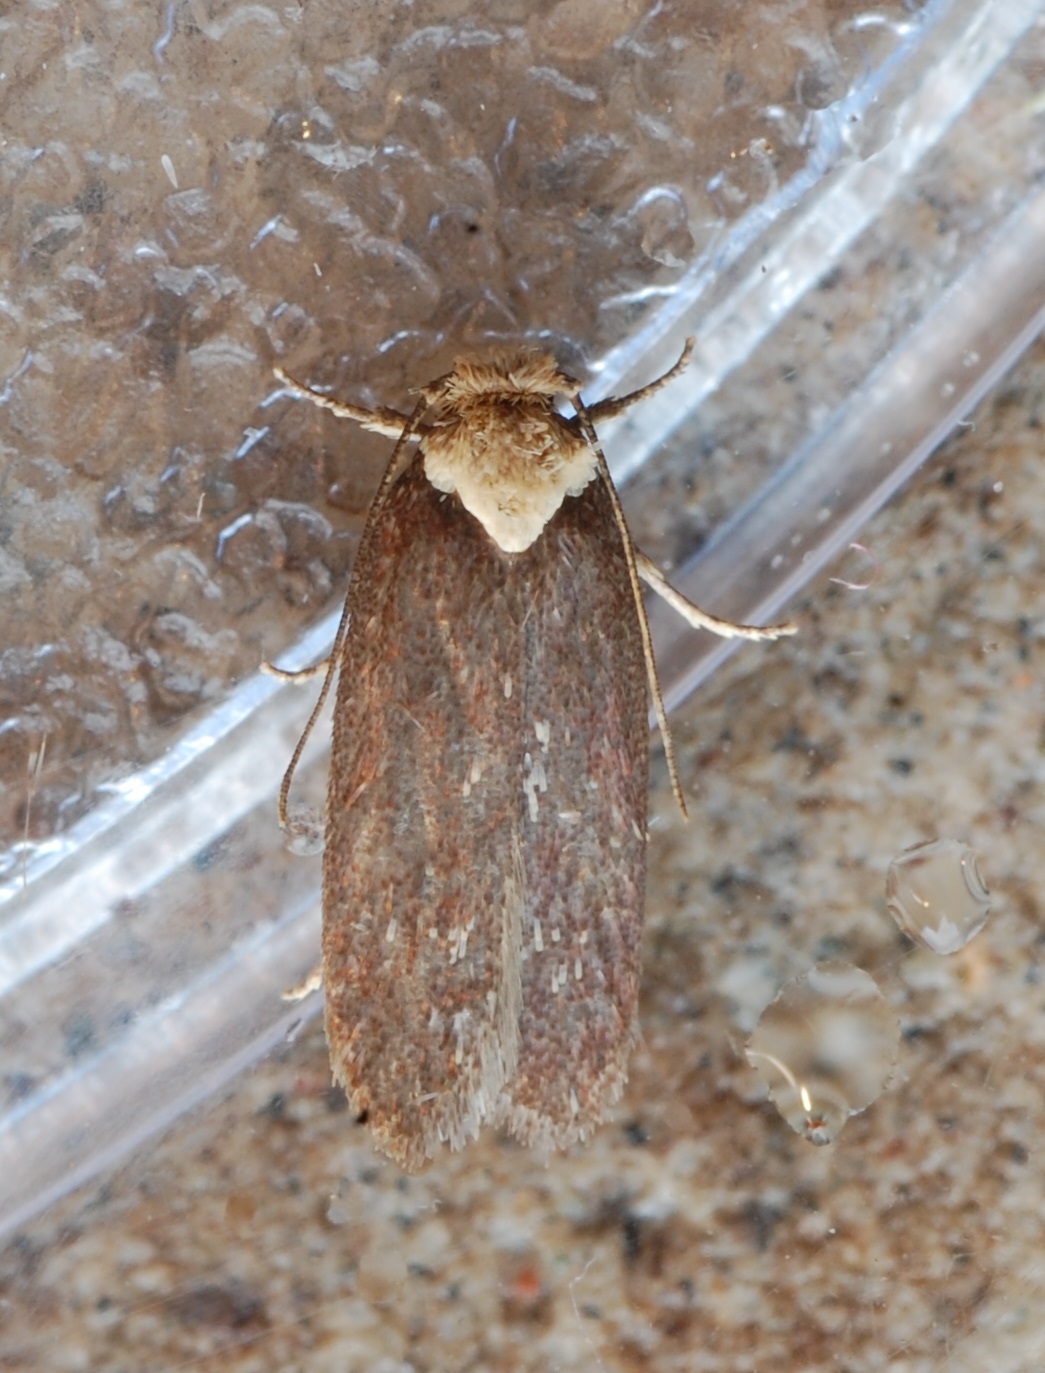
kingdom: Animalia
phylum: Arthropoda
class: Insecta
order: Lepidoptera
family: Depressariidae
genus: Depressaria
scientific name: Depressaria depressana
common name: Lost flat-body
